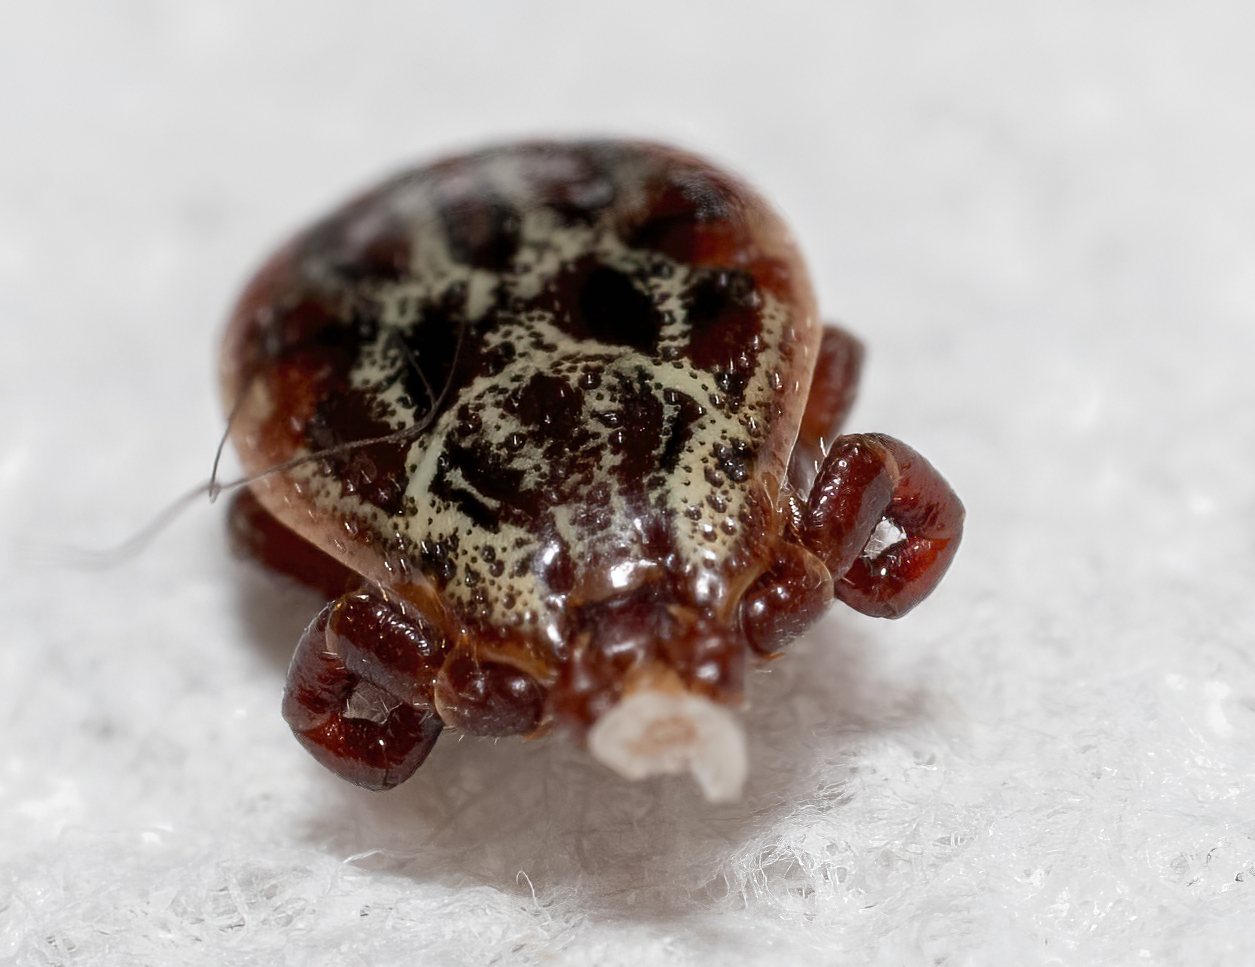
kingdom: Animalia
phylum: Arthropoda
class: Arachnida
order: Ixodida
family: Ixodidae
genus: Dermacentor
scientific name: Dermacentor reticulatus
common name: Ornate cow tick
